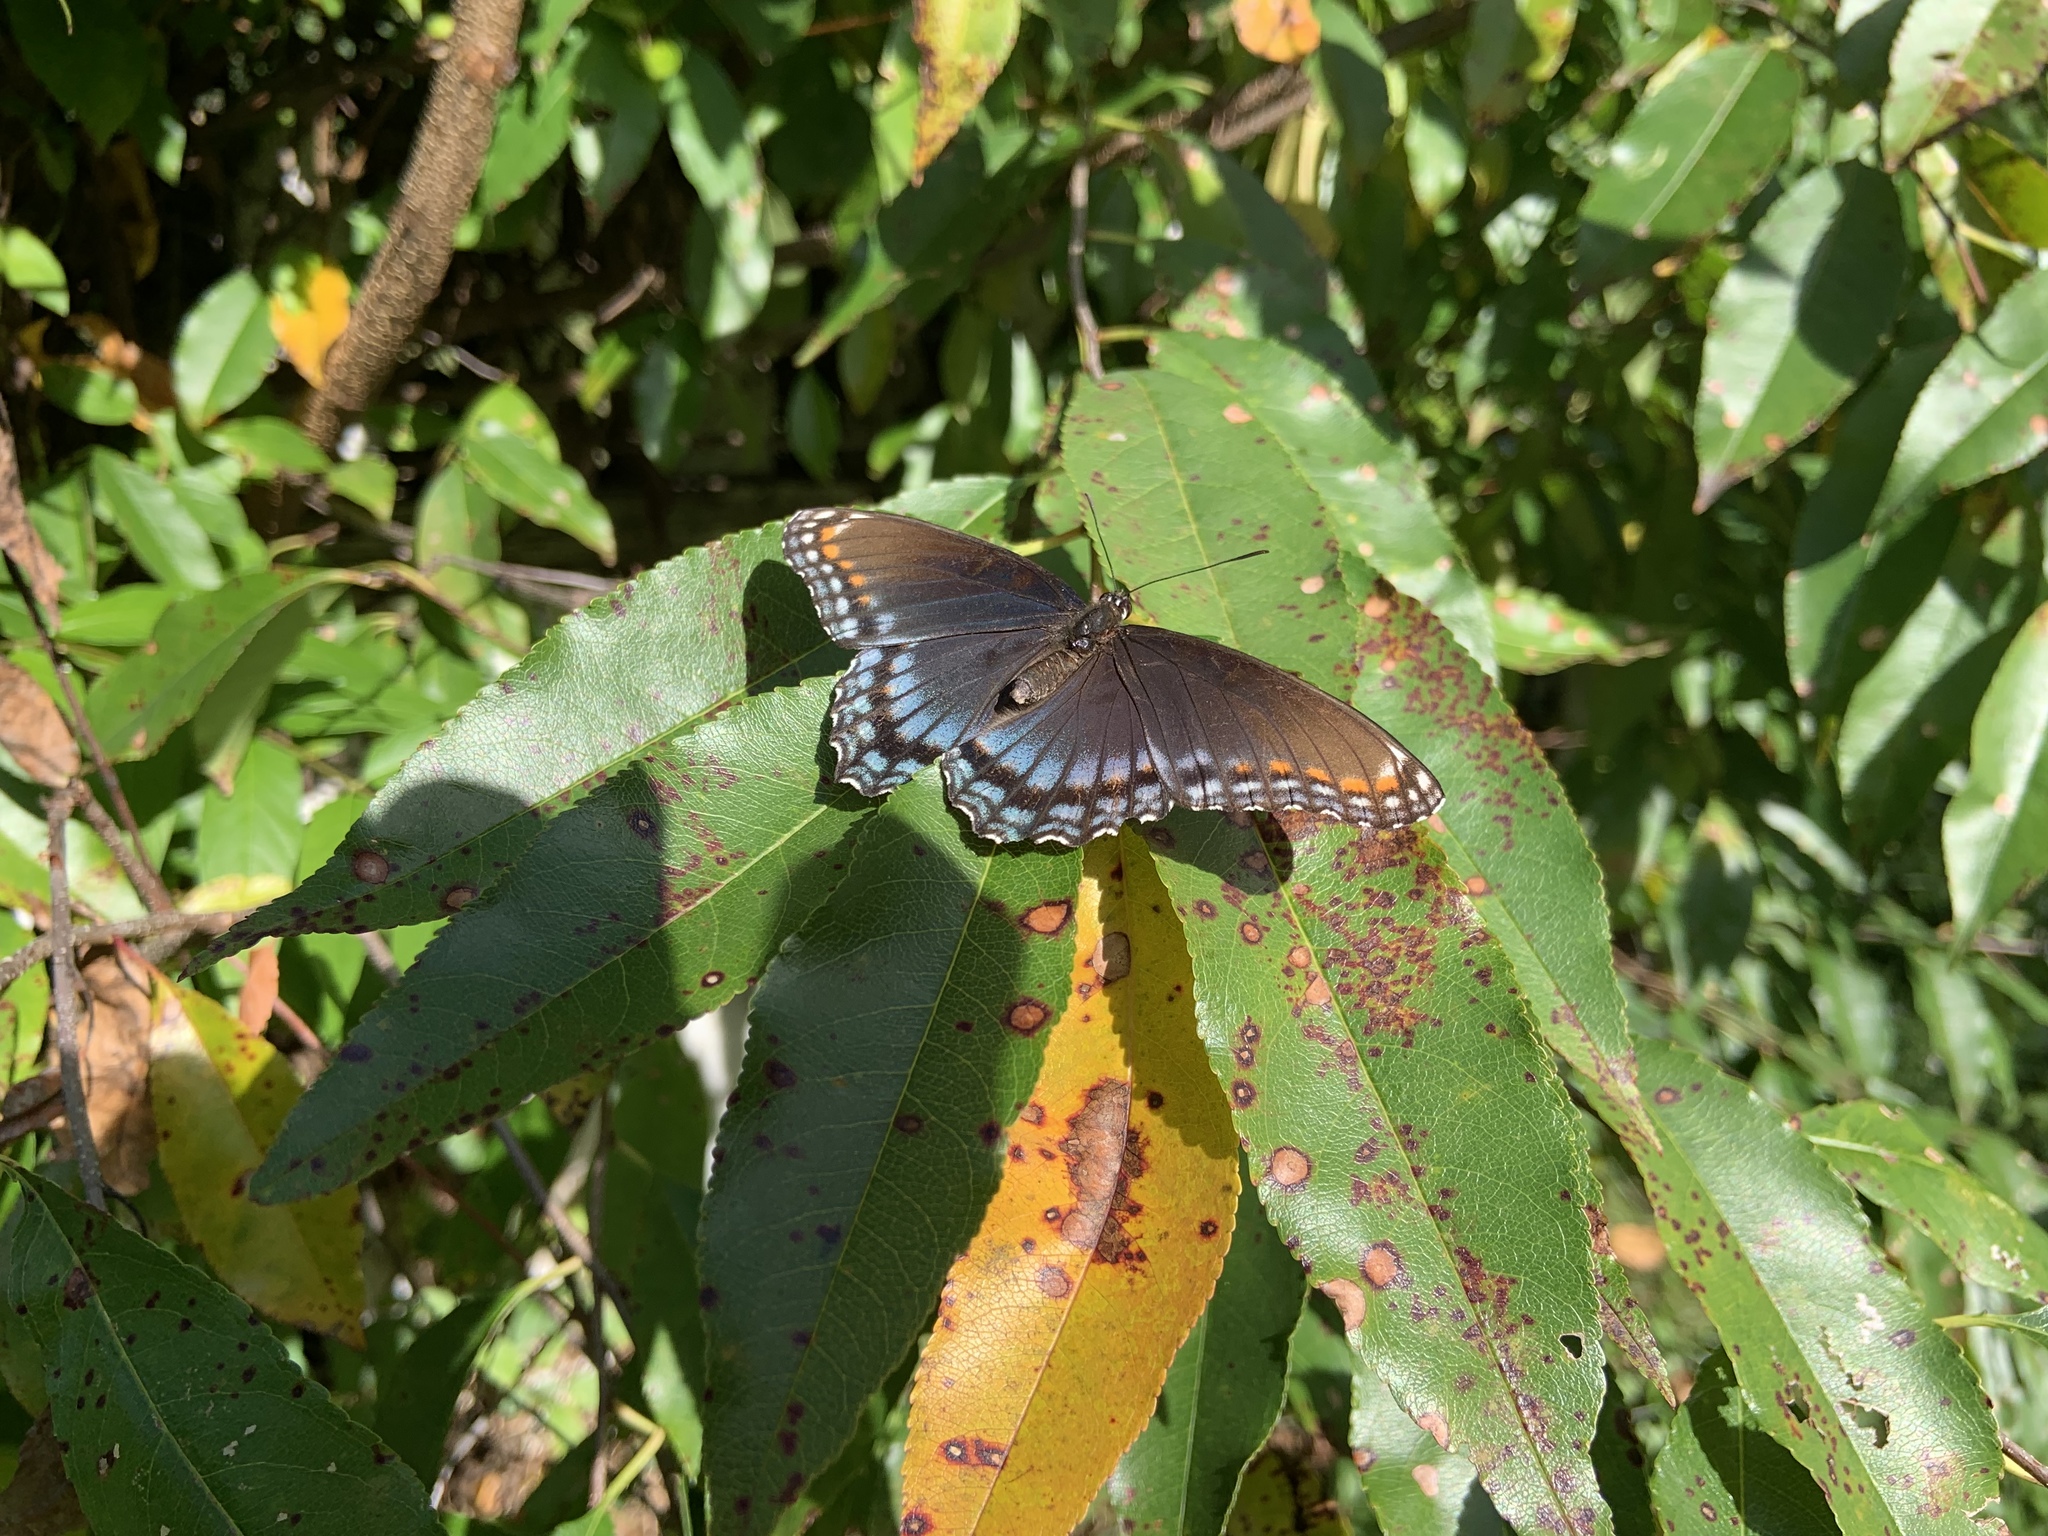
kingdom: Animalia
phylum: Arthropoda
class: Insecta
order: Lepidoptera
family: Nymphalidae
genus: Limenitis
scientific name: Limenitis astyanax
